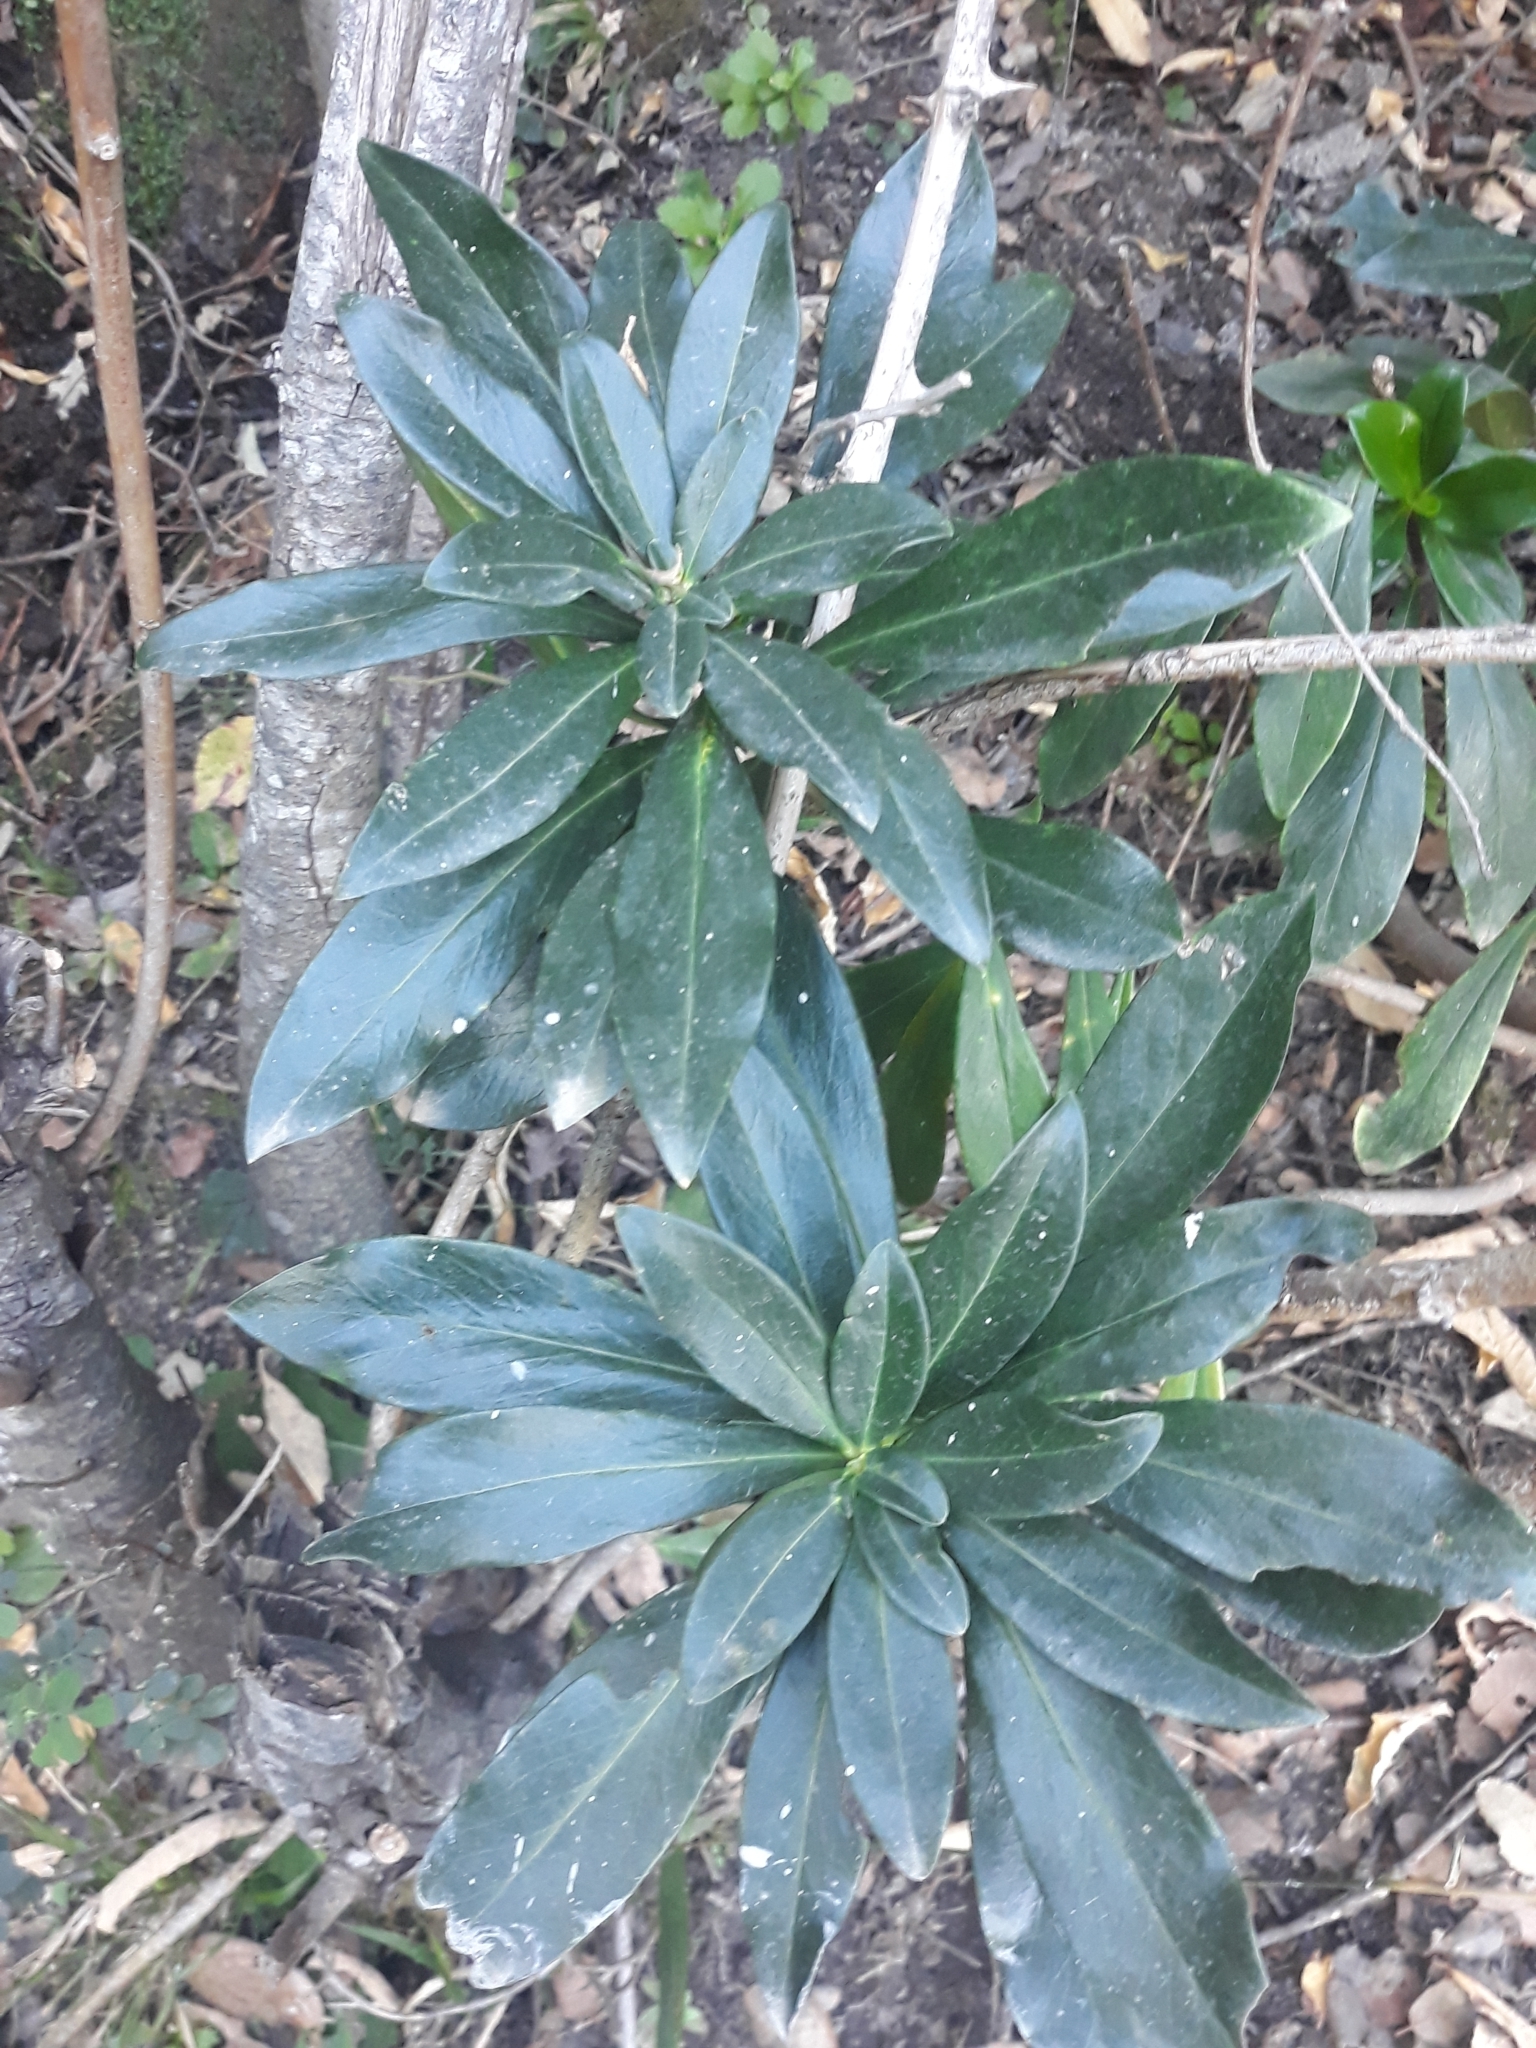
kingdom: Plantae
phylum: Tracheophyta
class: Magnoliopsida
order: Malvales
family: Thymelaeaceae
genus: Daphne
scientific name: Daphne laureola
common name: Spurge-laurel
